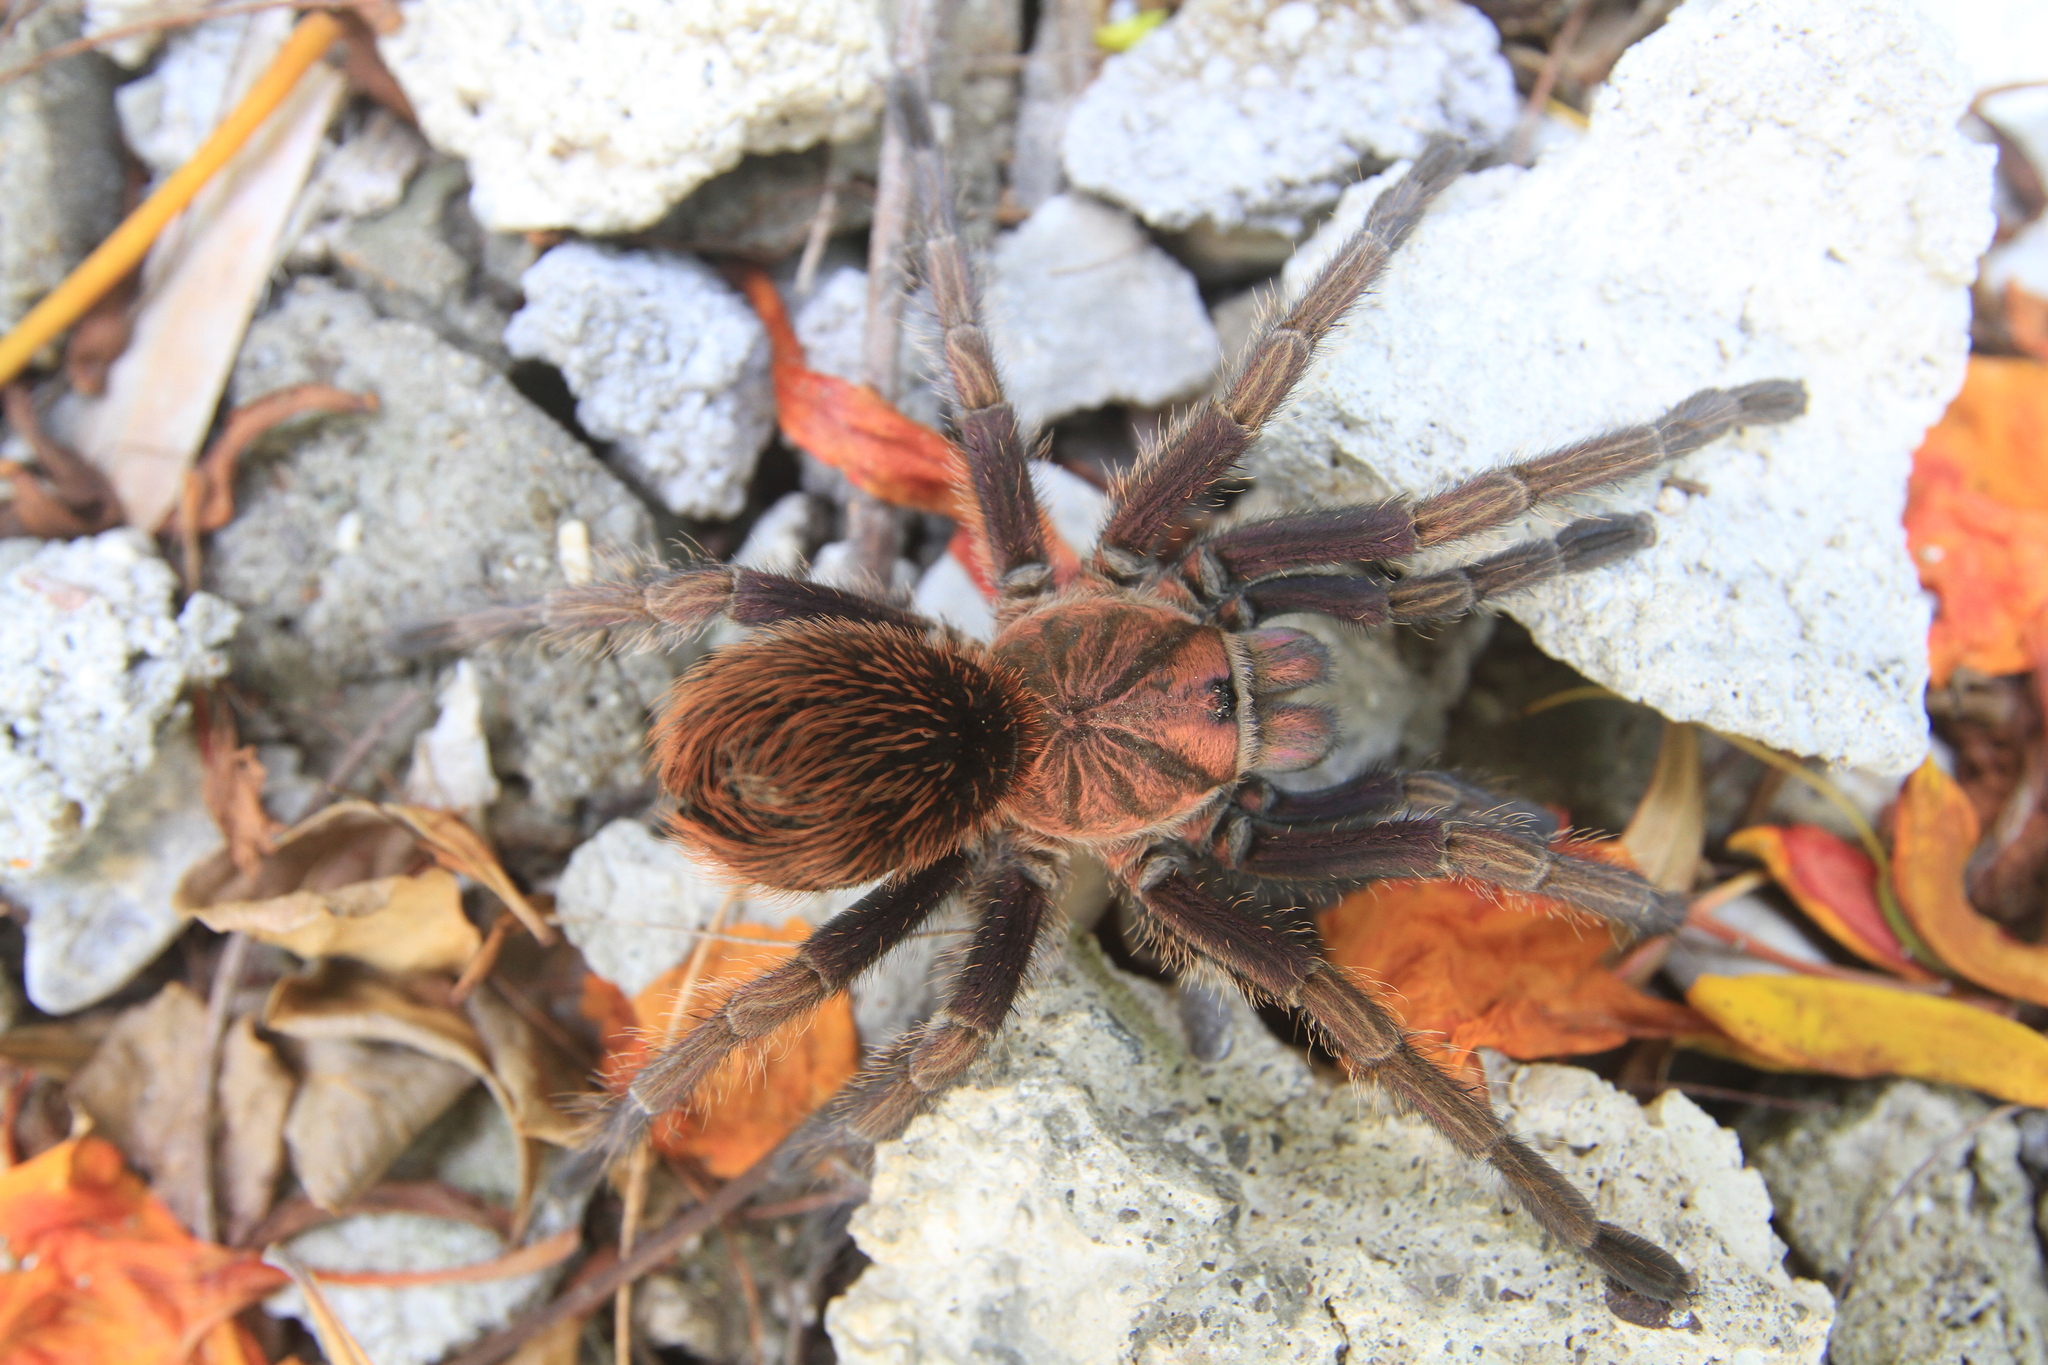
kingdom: Animalia
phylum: Arthropoda
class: Arachnida
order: Araneae
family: Theraphosidae
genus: Phormictopus
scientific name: Phormictopus cancerides
